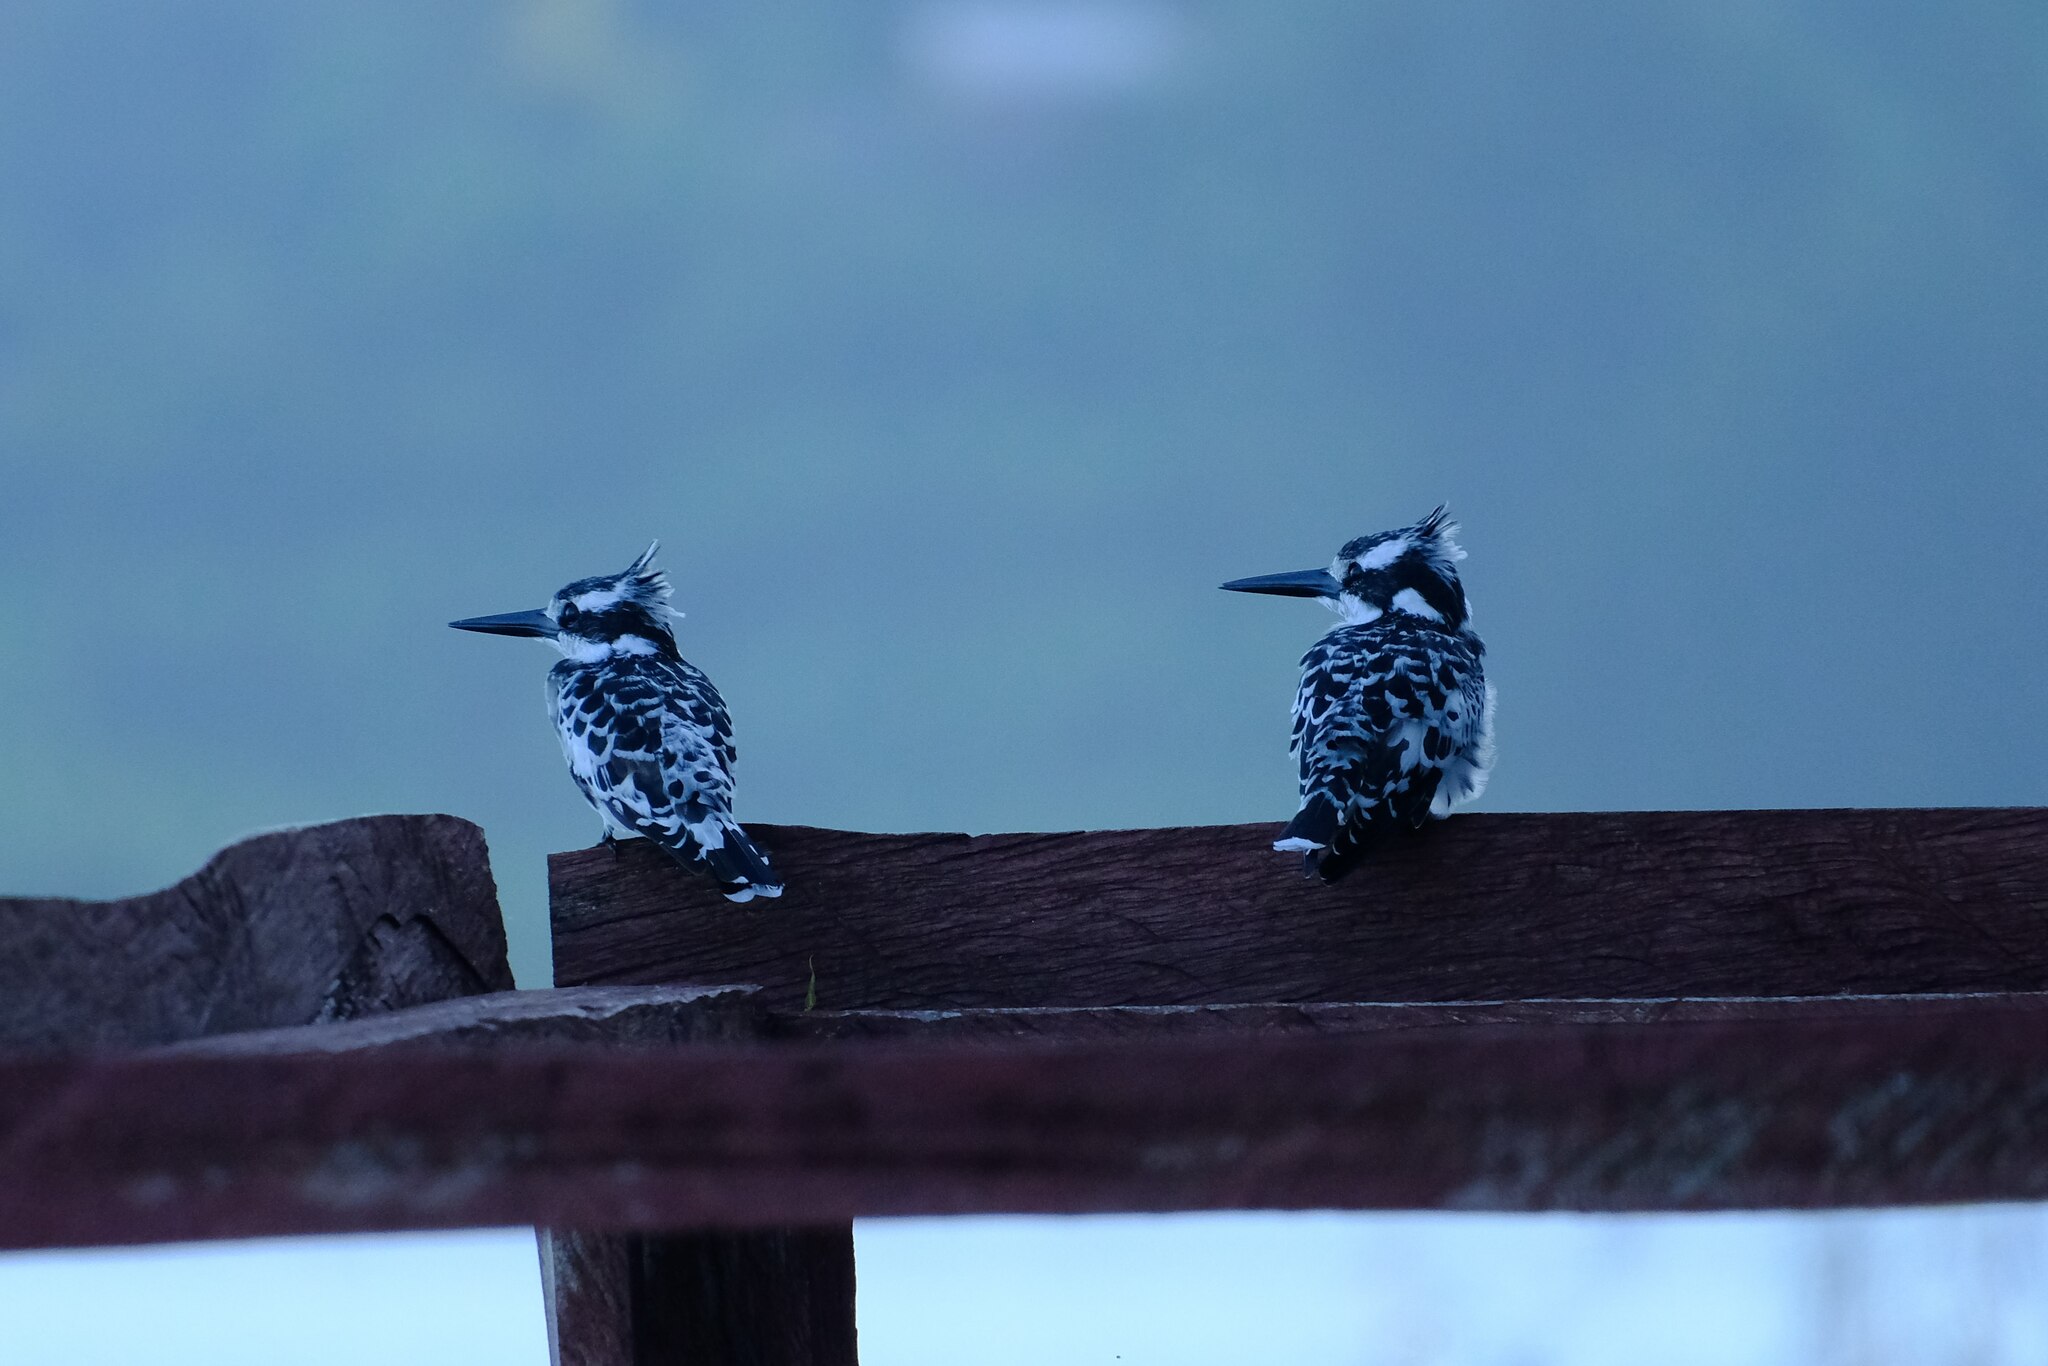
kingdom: Animalia
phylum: Chordata
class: Aves
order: Coraciiformes
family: Alcedinidae
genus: Ceryle
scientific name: Ceryle rudis
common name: Pied kingfisher
